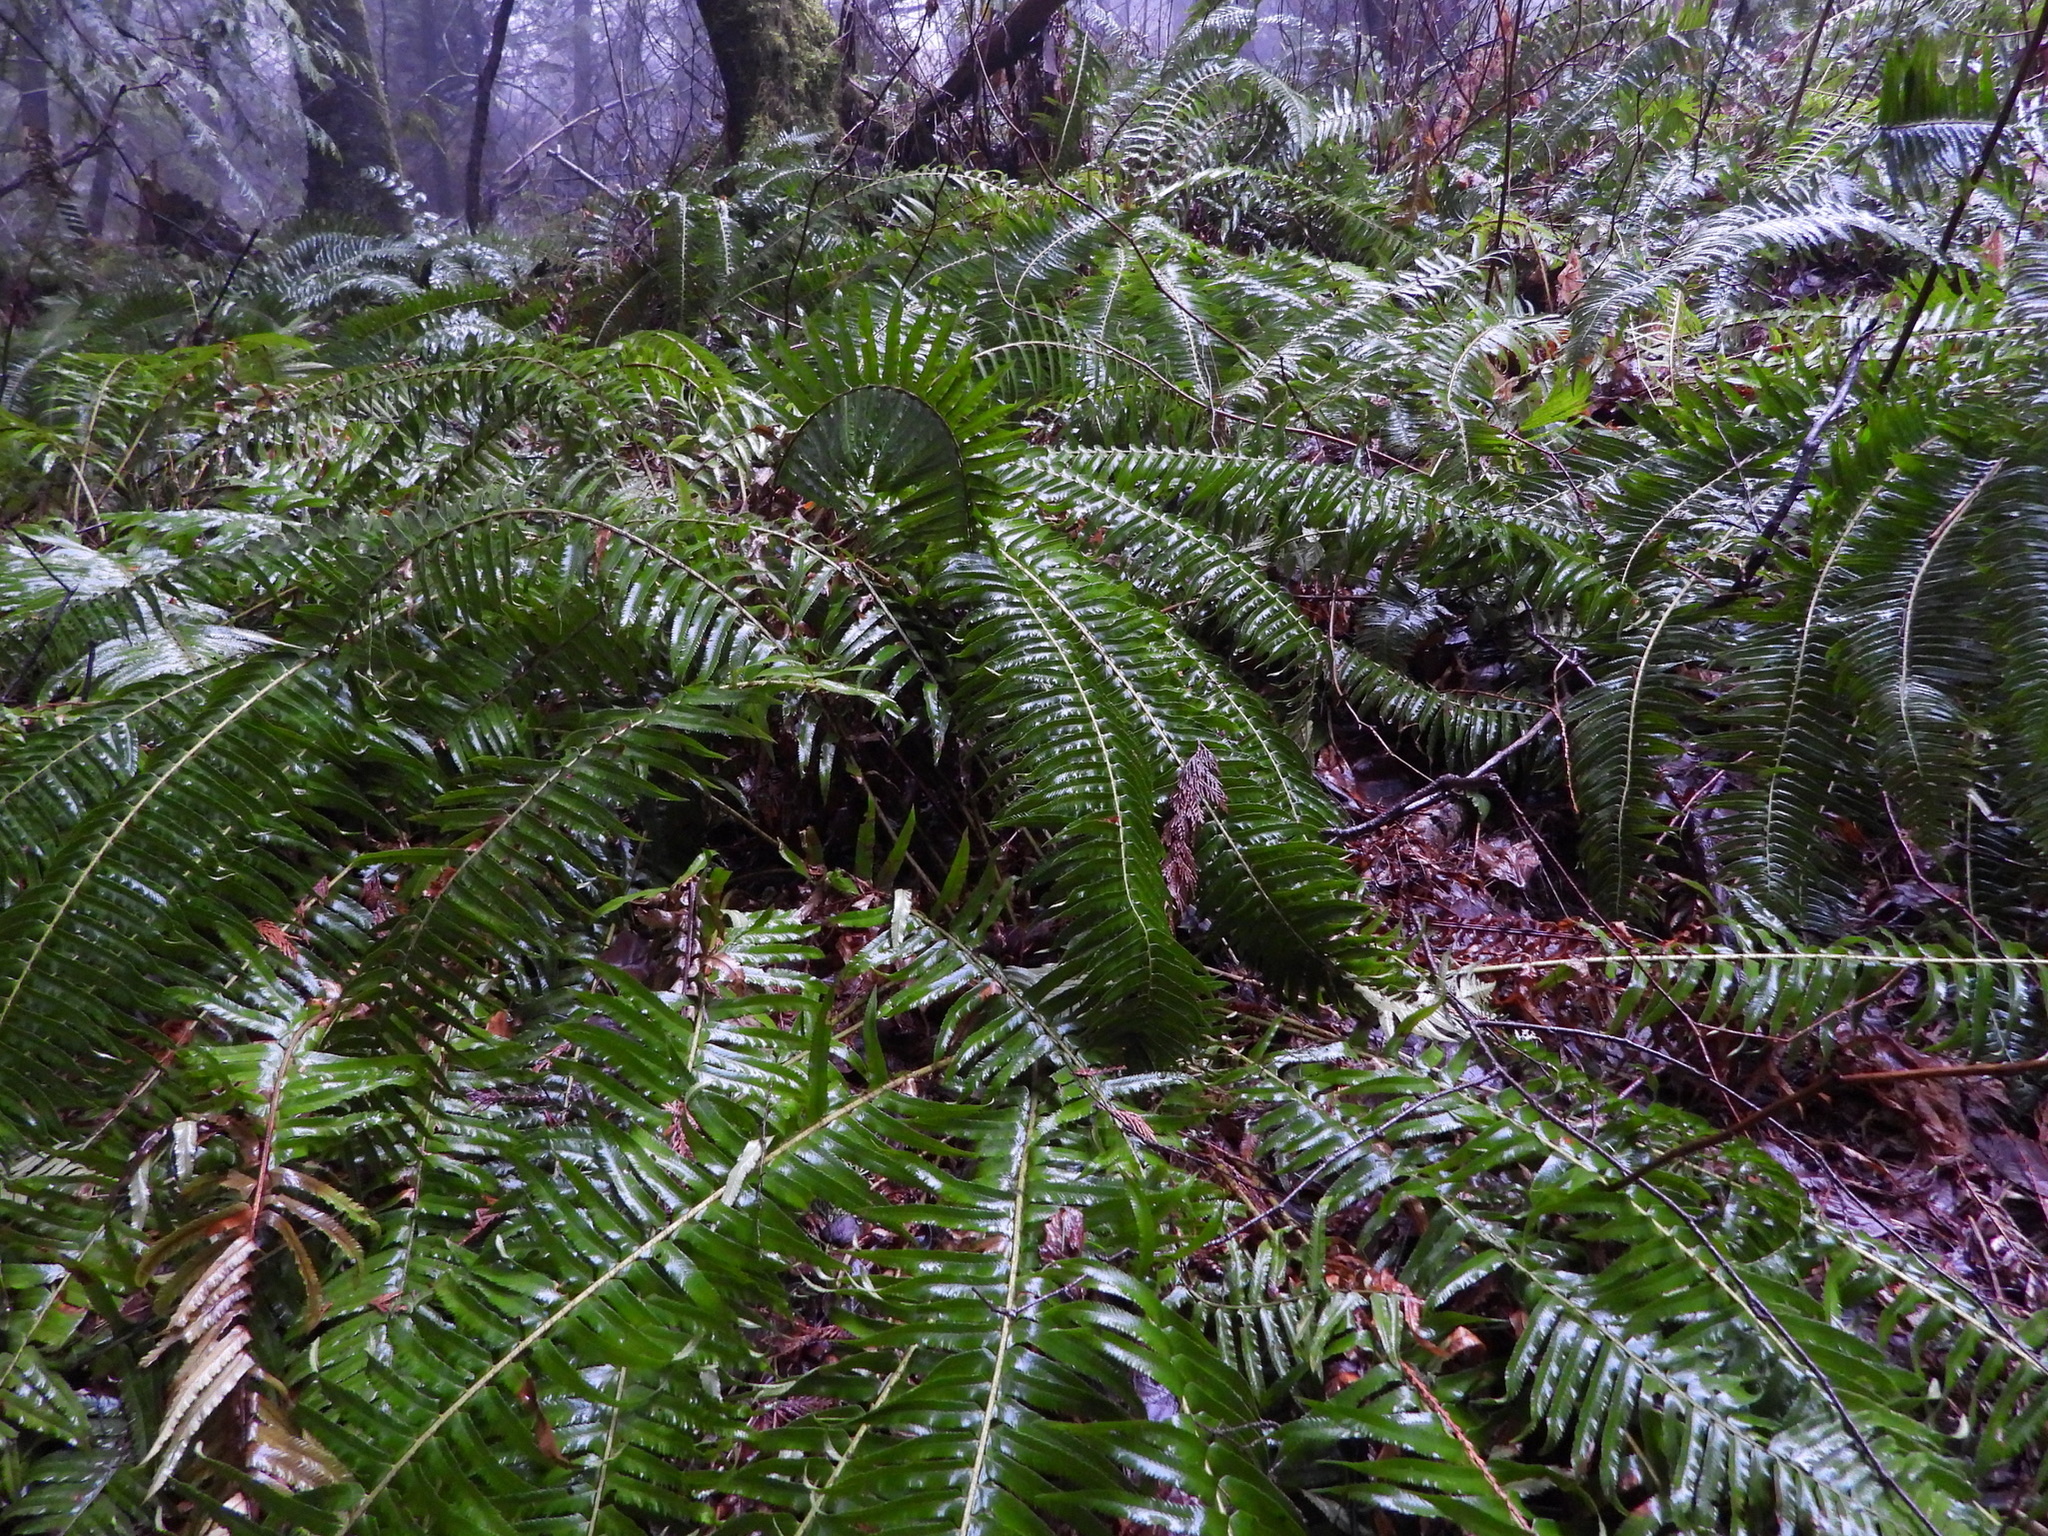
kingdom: Plantae
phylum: Tracheophyta
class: Polypodiopsida
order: Polypodiales
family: Dryopteridaceae
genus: Polystichum
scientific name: Polystichum munitum
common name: Western sword-fern
